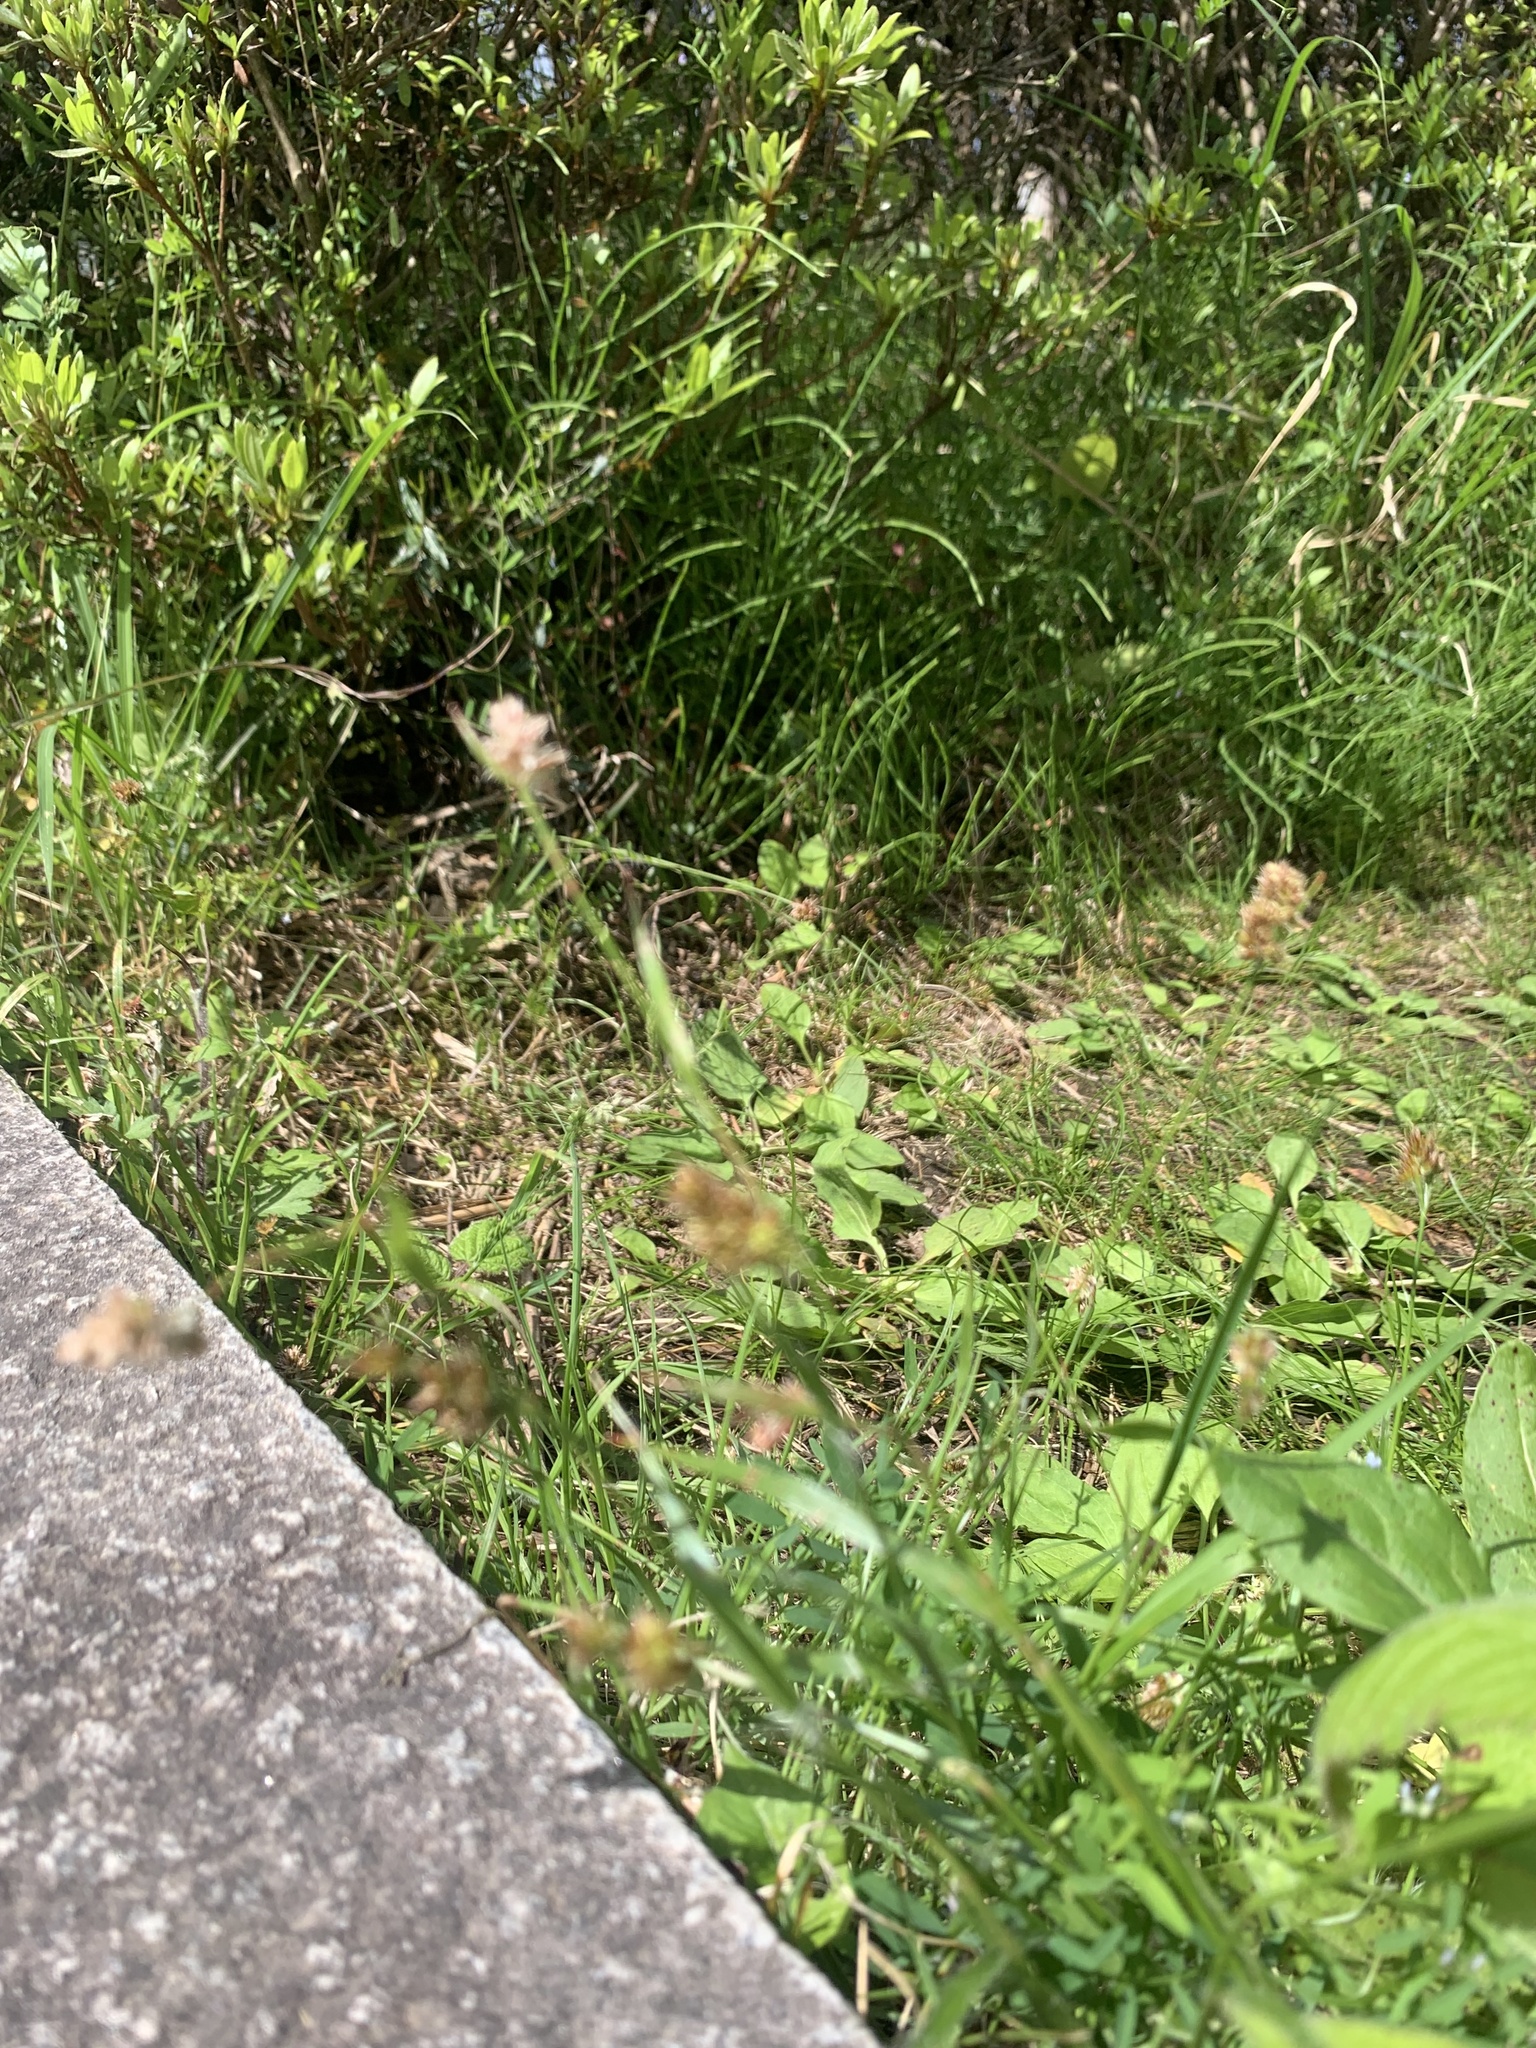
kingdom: Plantae
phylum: Tracheophyta
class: Liliopsida
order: Poales
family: Juncaceae
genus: Luzula
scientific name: Luzula capitata
